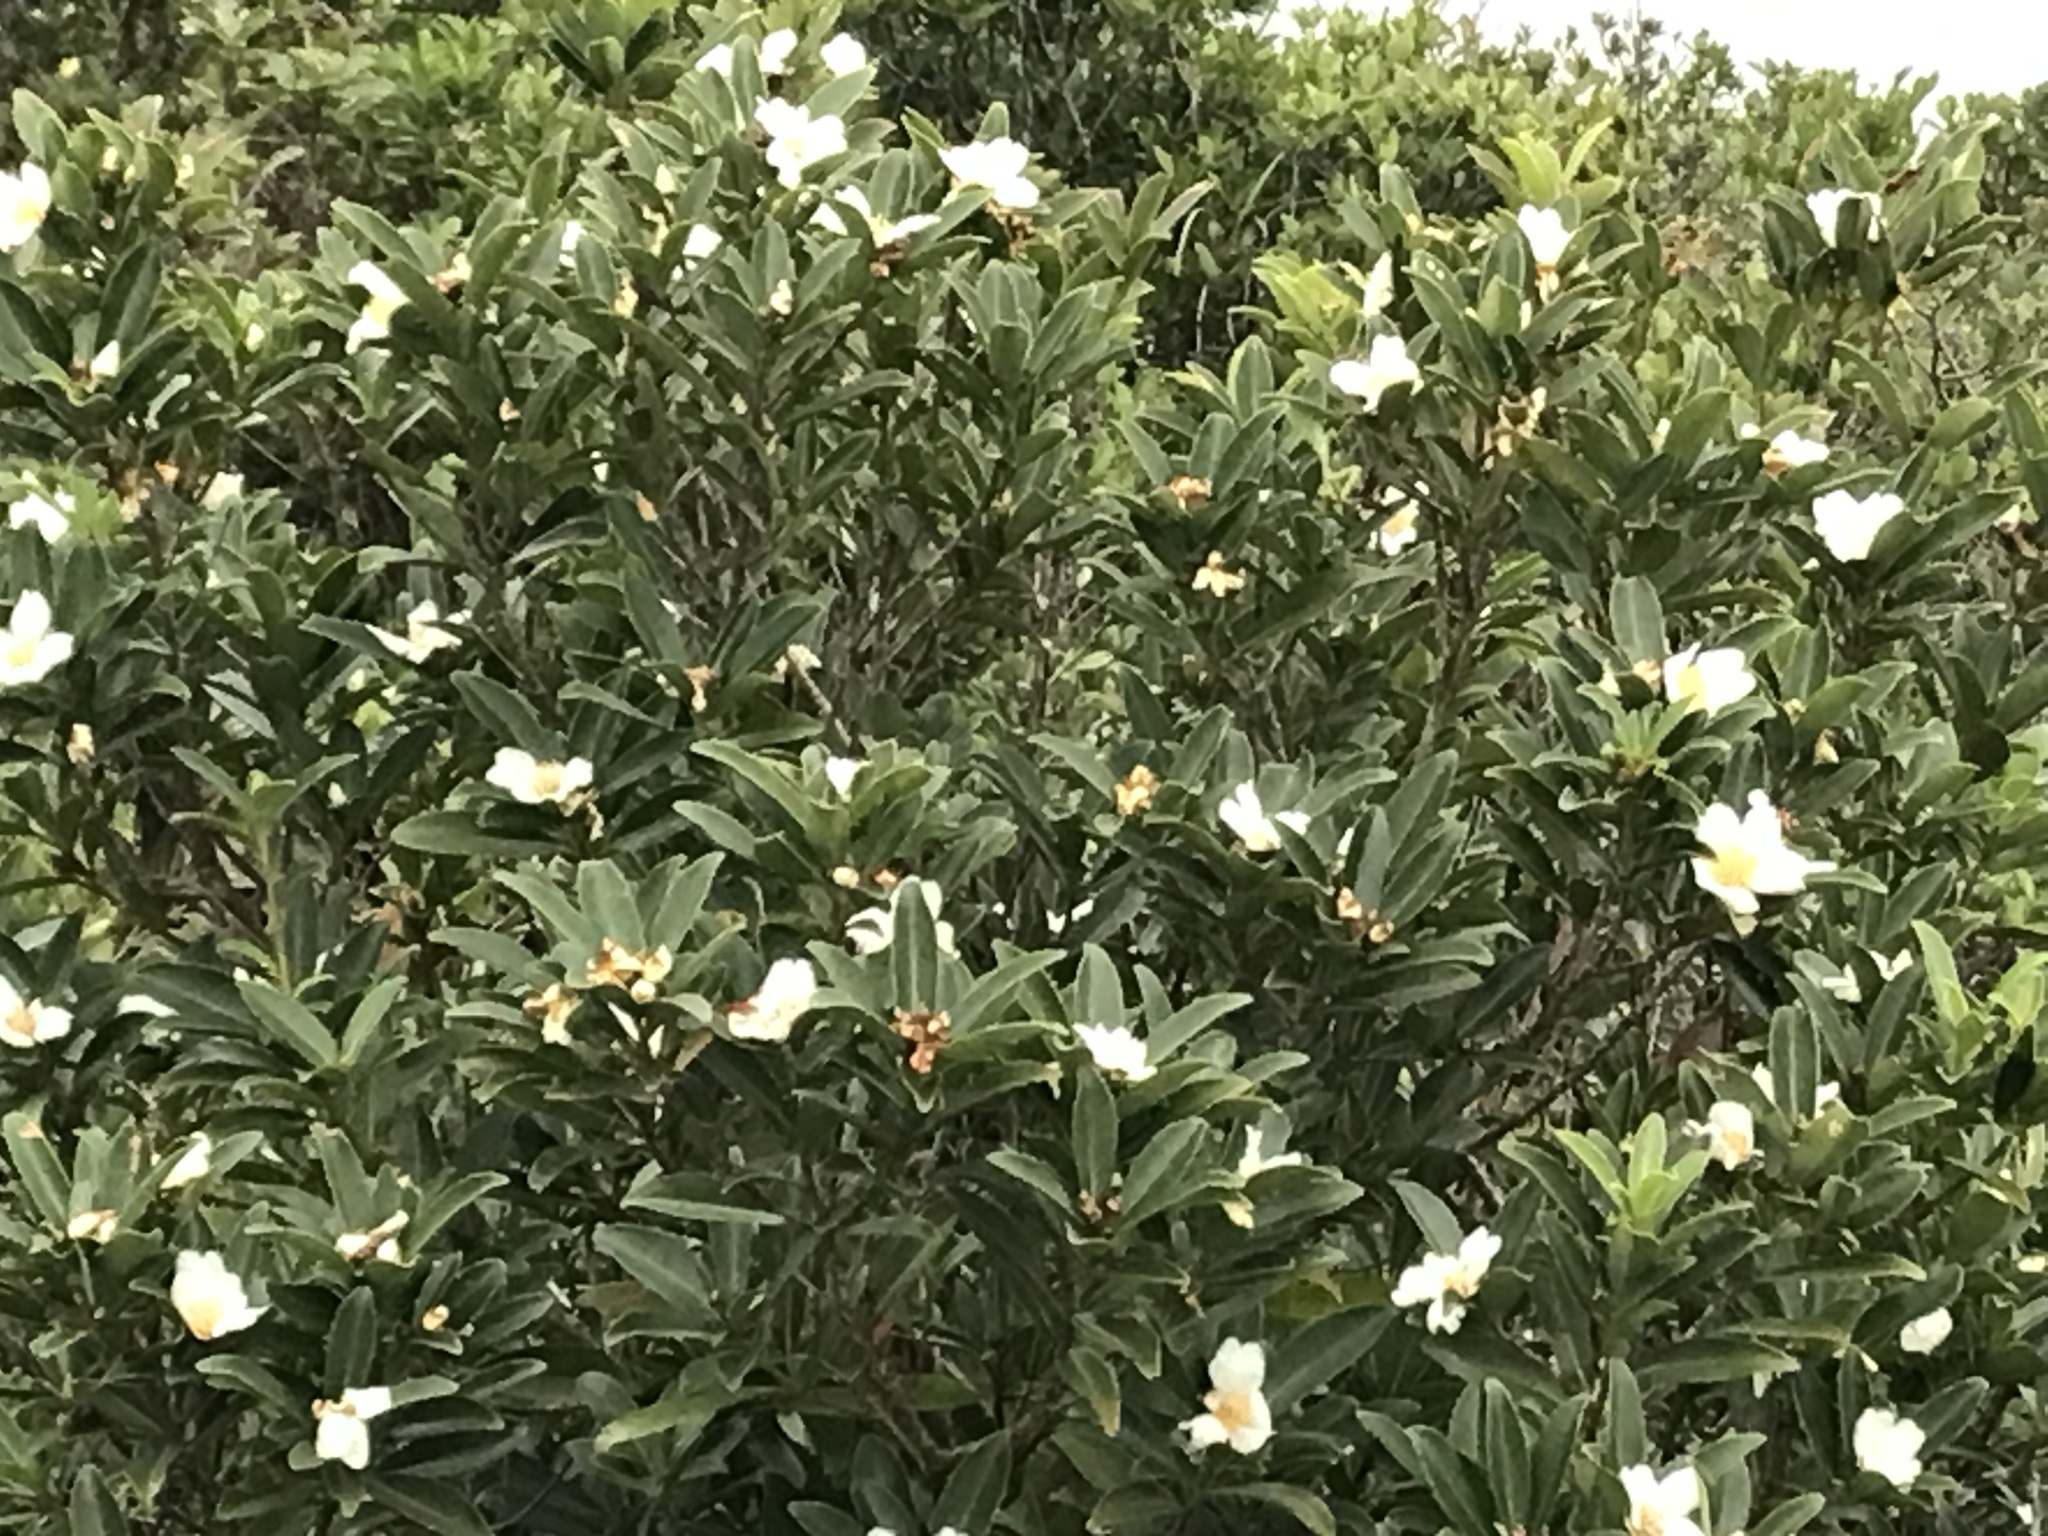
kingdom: Plantae
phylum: Tracheophyta
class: Magnoliopsida
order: Ericales
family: Theaceae
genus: Polyspora
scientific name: Polyspora axillaris
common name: Fried egg tree
